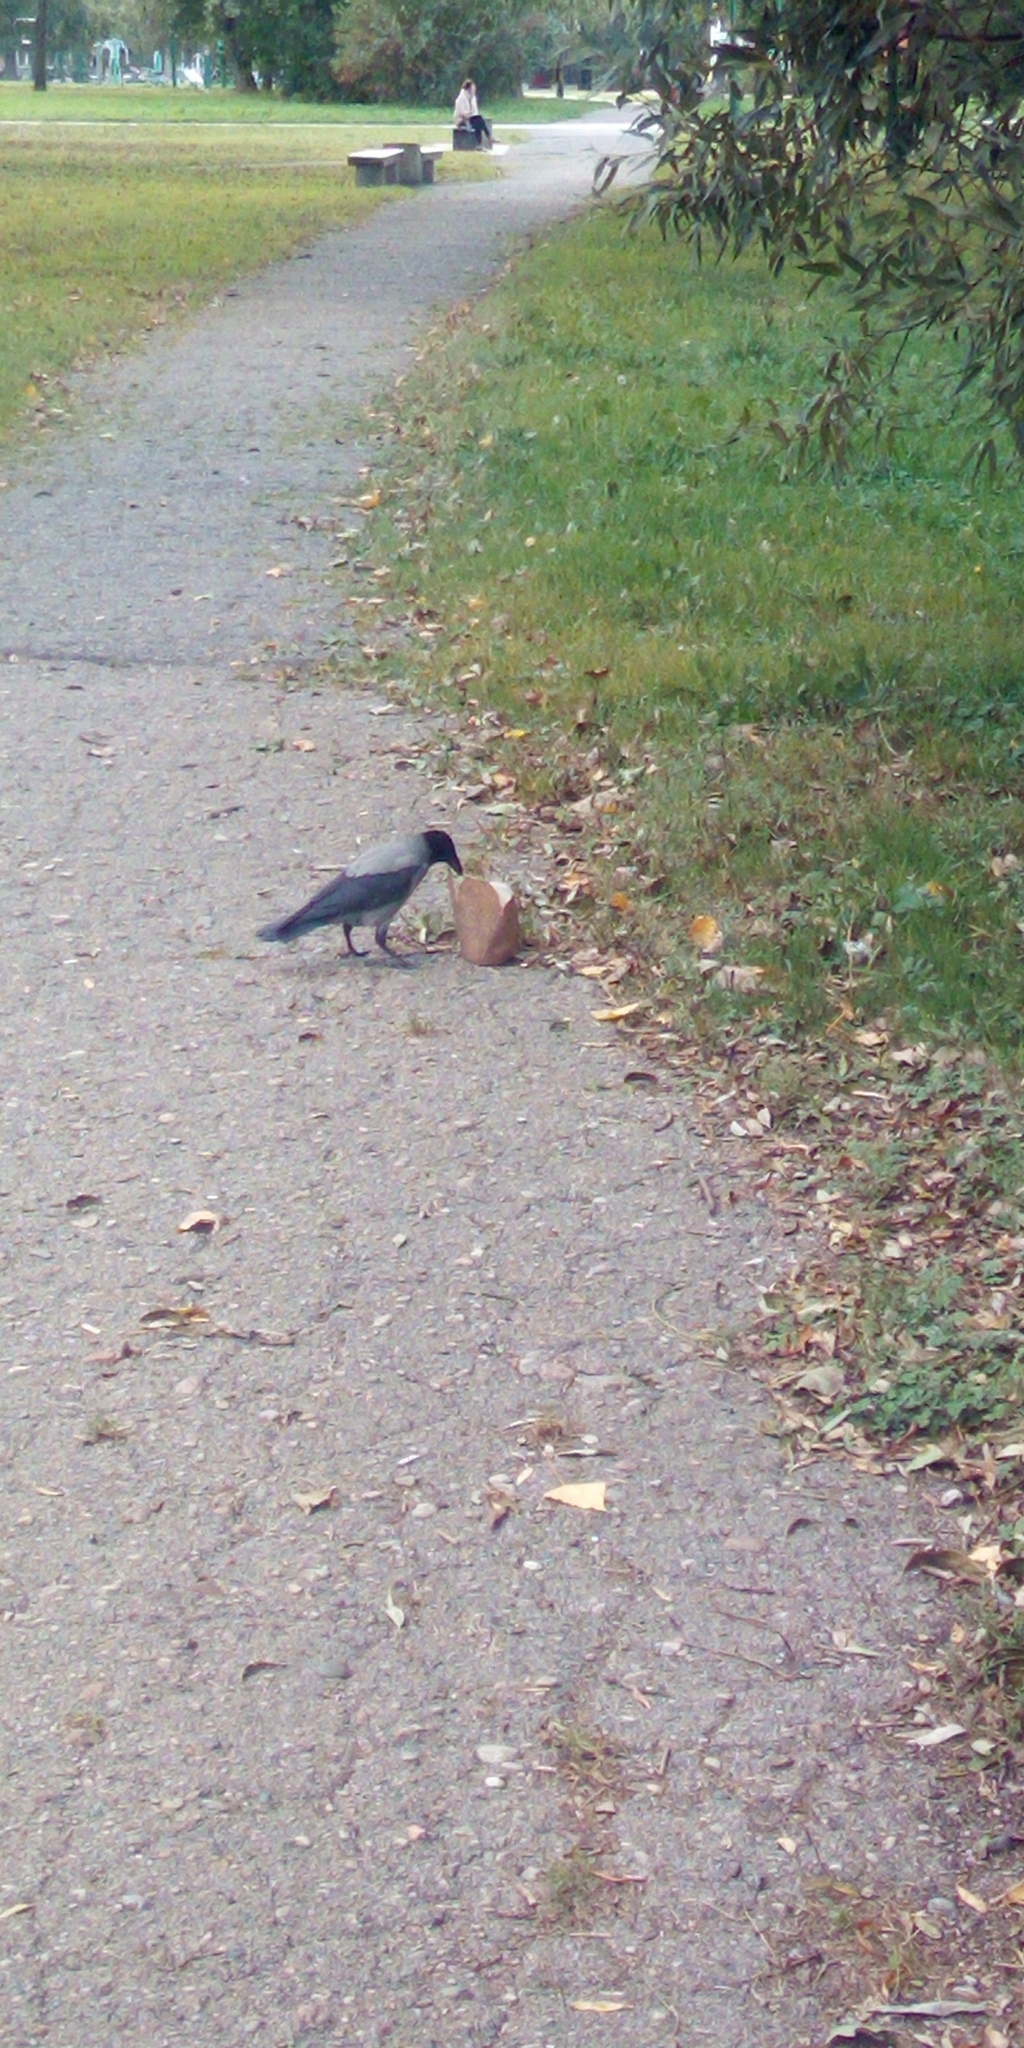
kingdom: Animalia
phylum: Chordata
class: Aves
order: Passeriformes
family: Corvidae
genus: Corvus
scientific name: Corvus cornix
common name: Hooded crow
